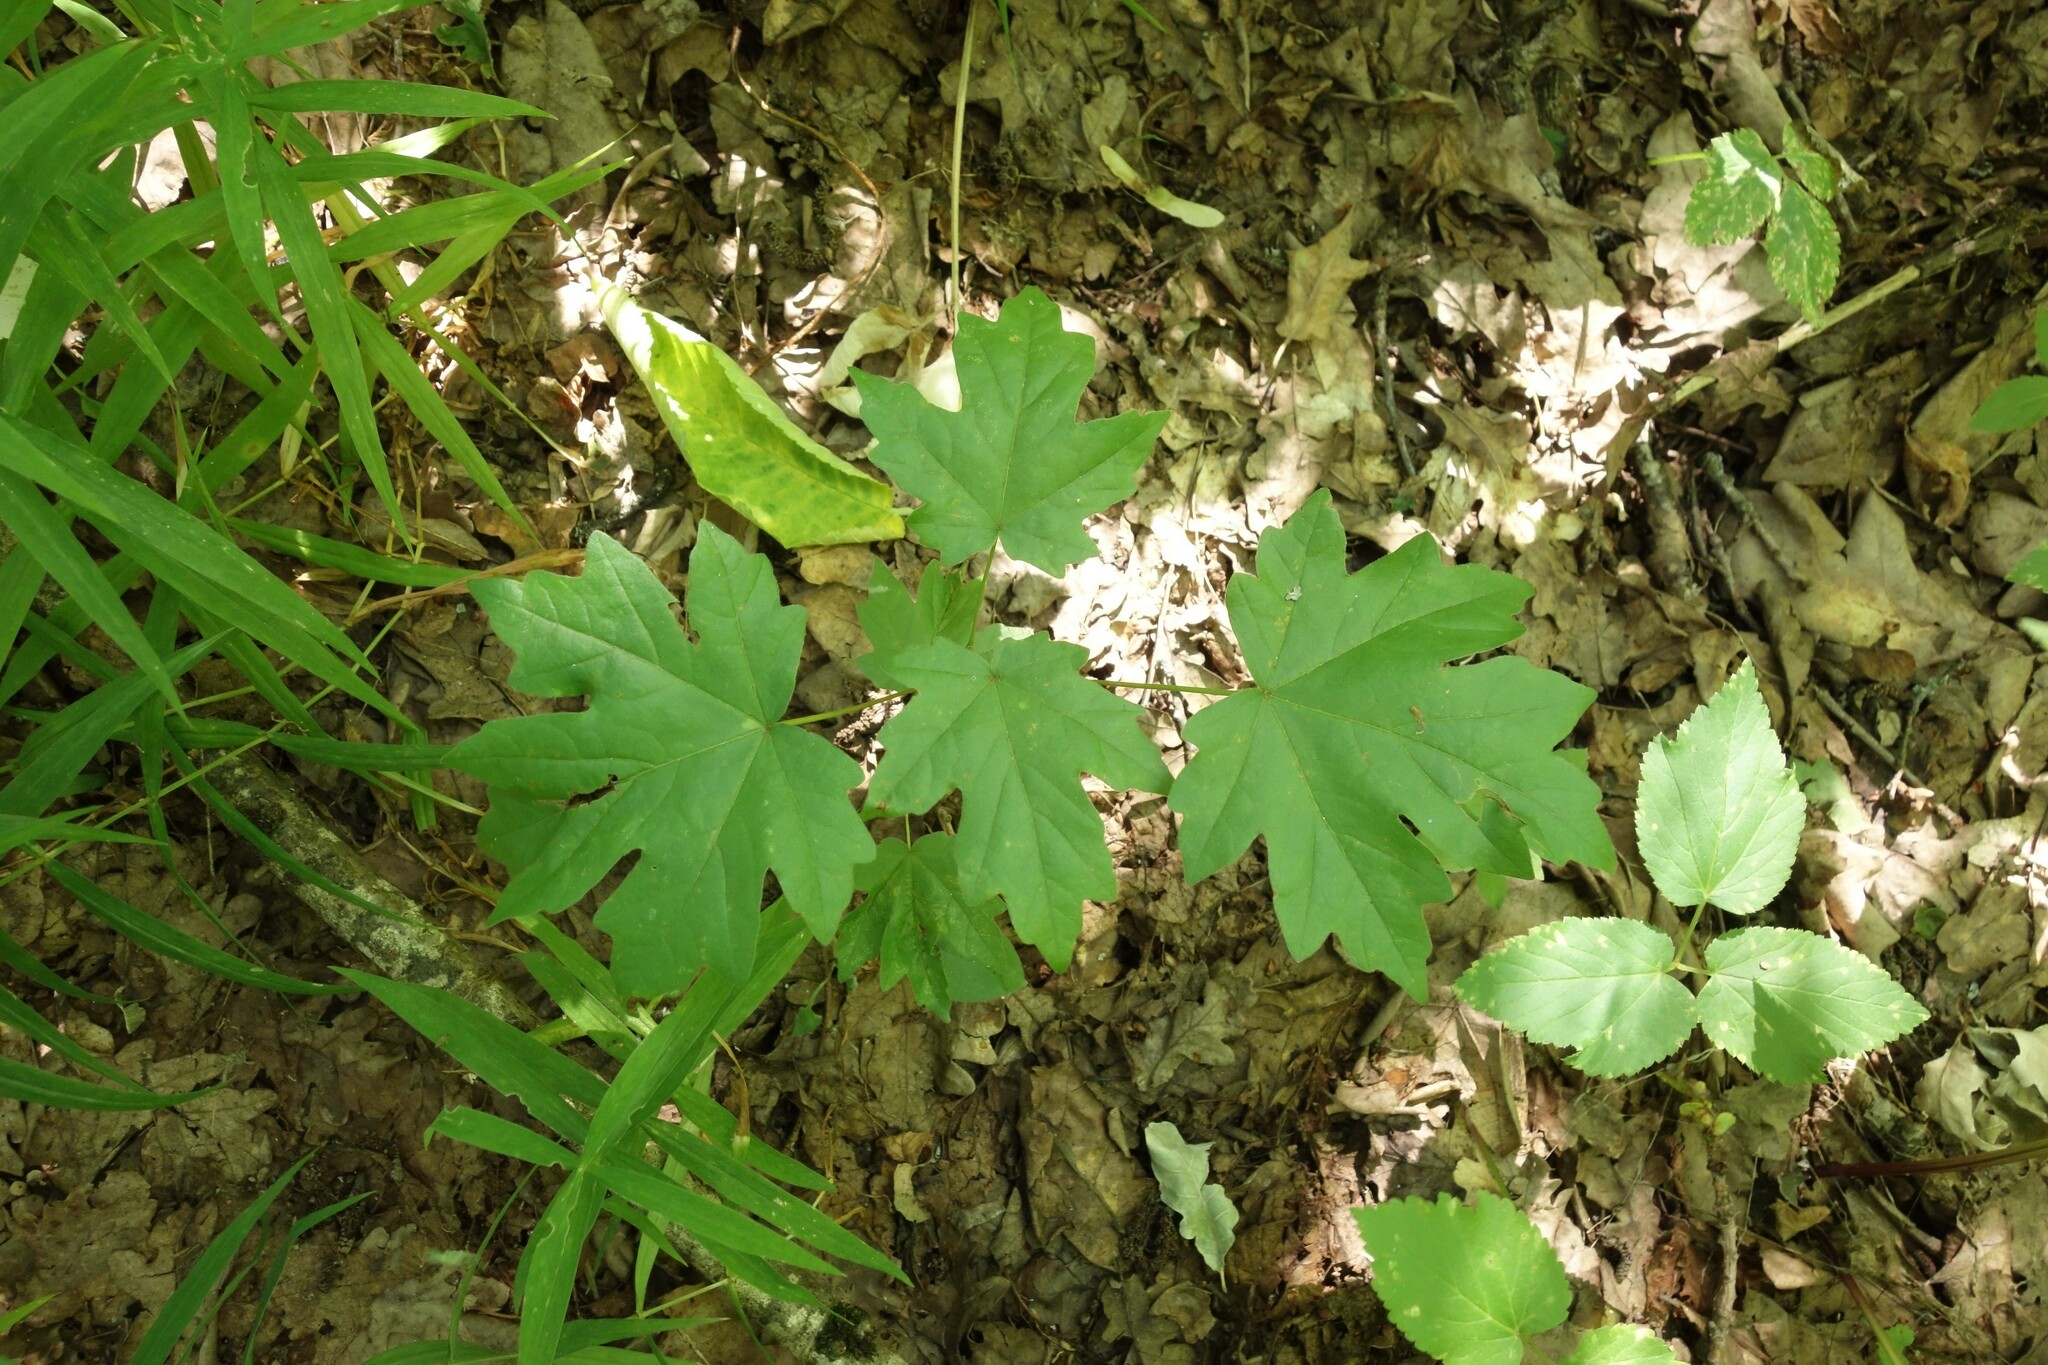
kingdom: Plantae
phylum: Tracheophyta
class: Magnoliopsida
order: Sapindales
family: Sapindaceae
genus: Acer
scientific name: Acer campestre
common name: Field maple
